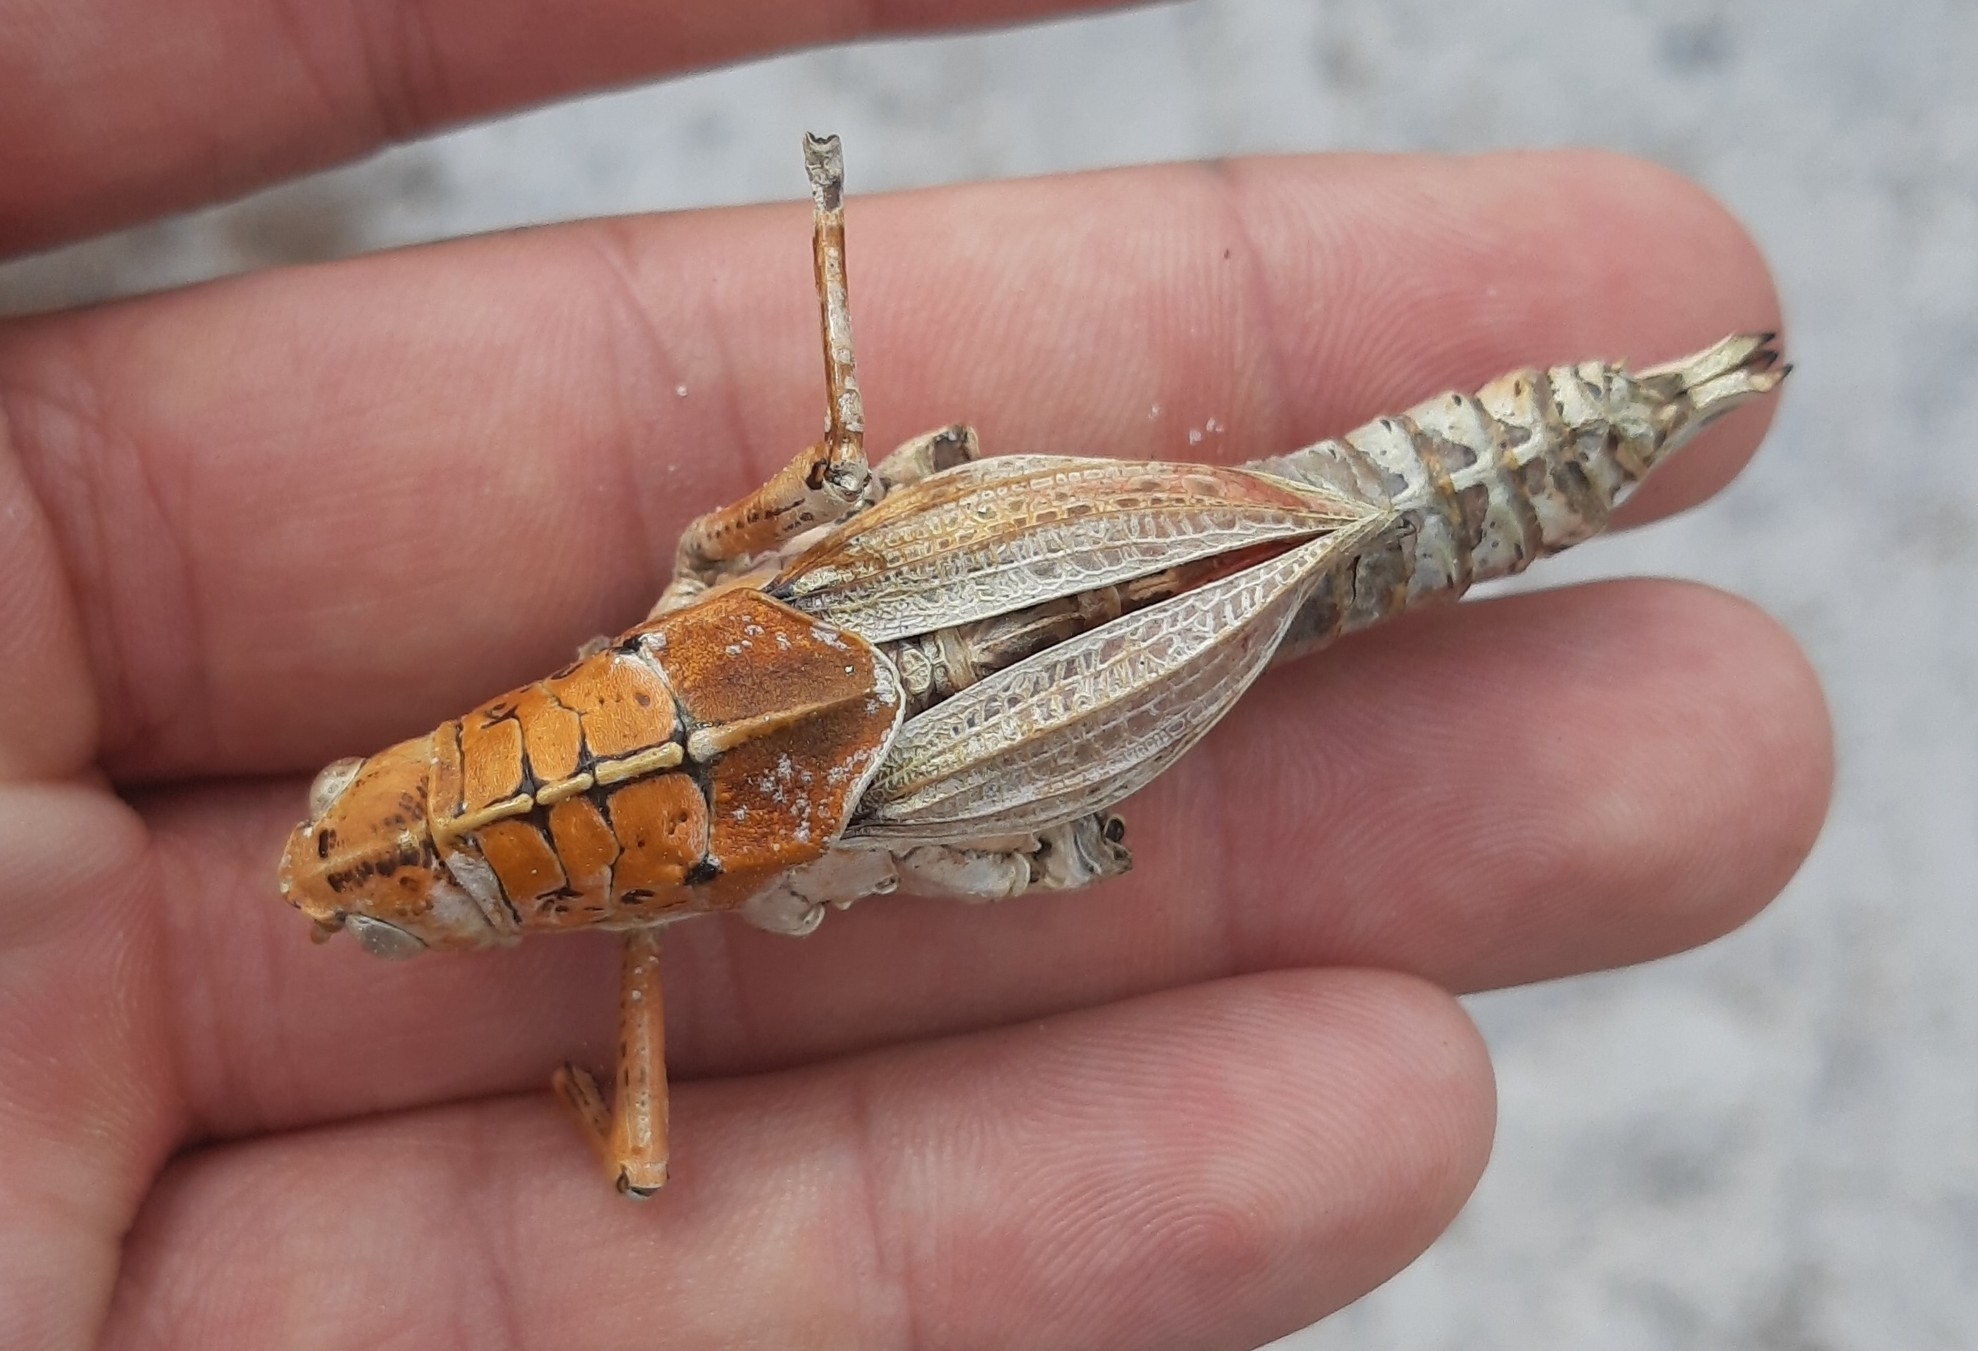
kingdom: Animalia
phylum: Arthropoda
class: Insecta
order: Orthoptera
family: Romaleidae
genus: Romalea
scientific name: Romalea microptera
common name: Eastern lubber grasshopper
